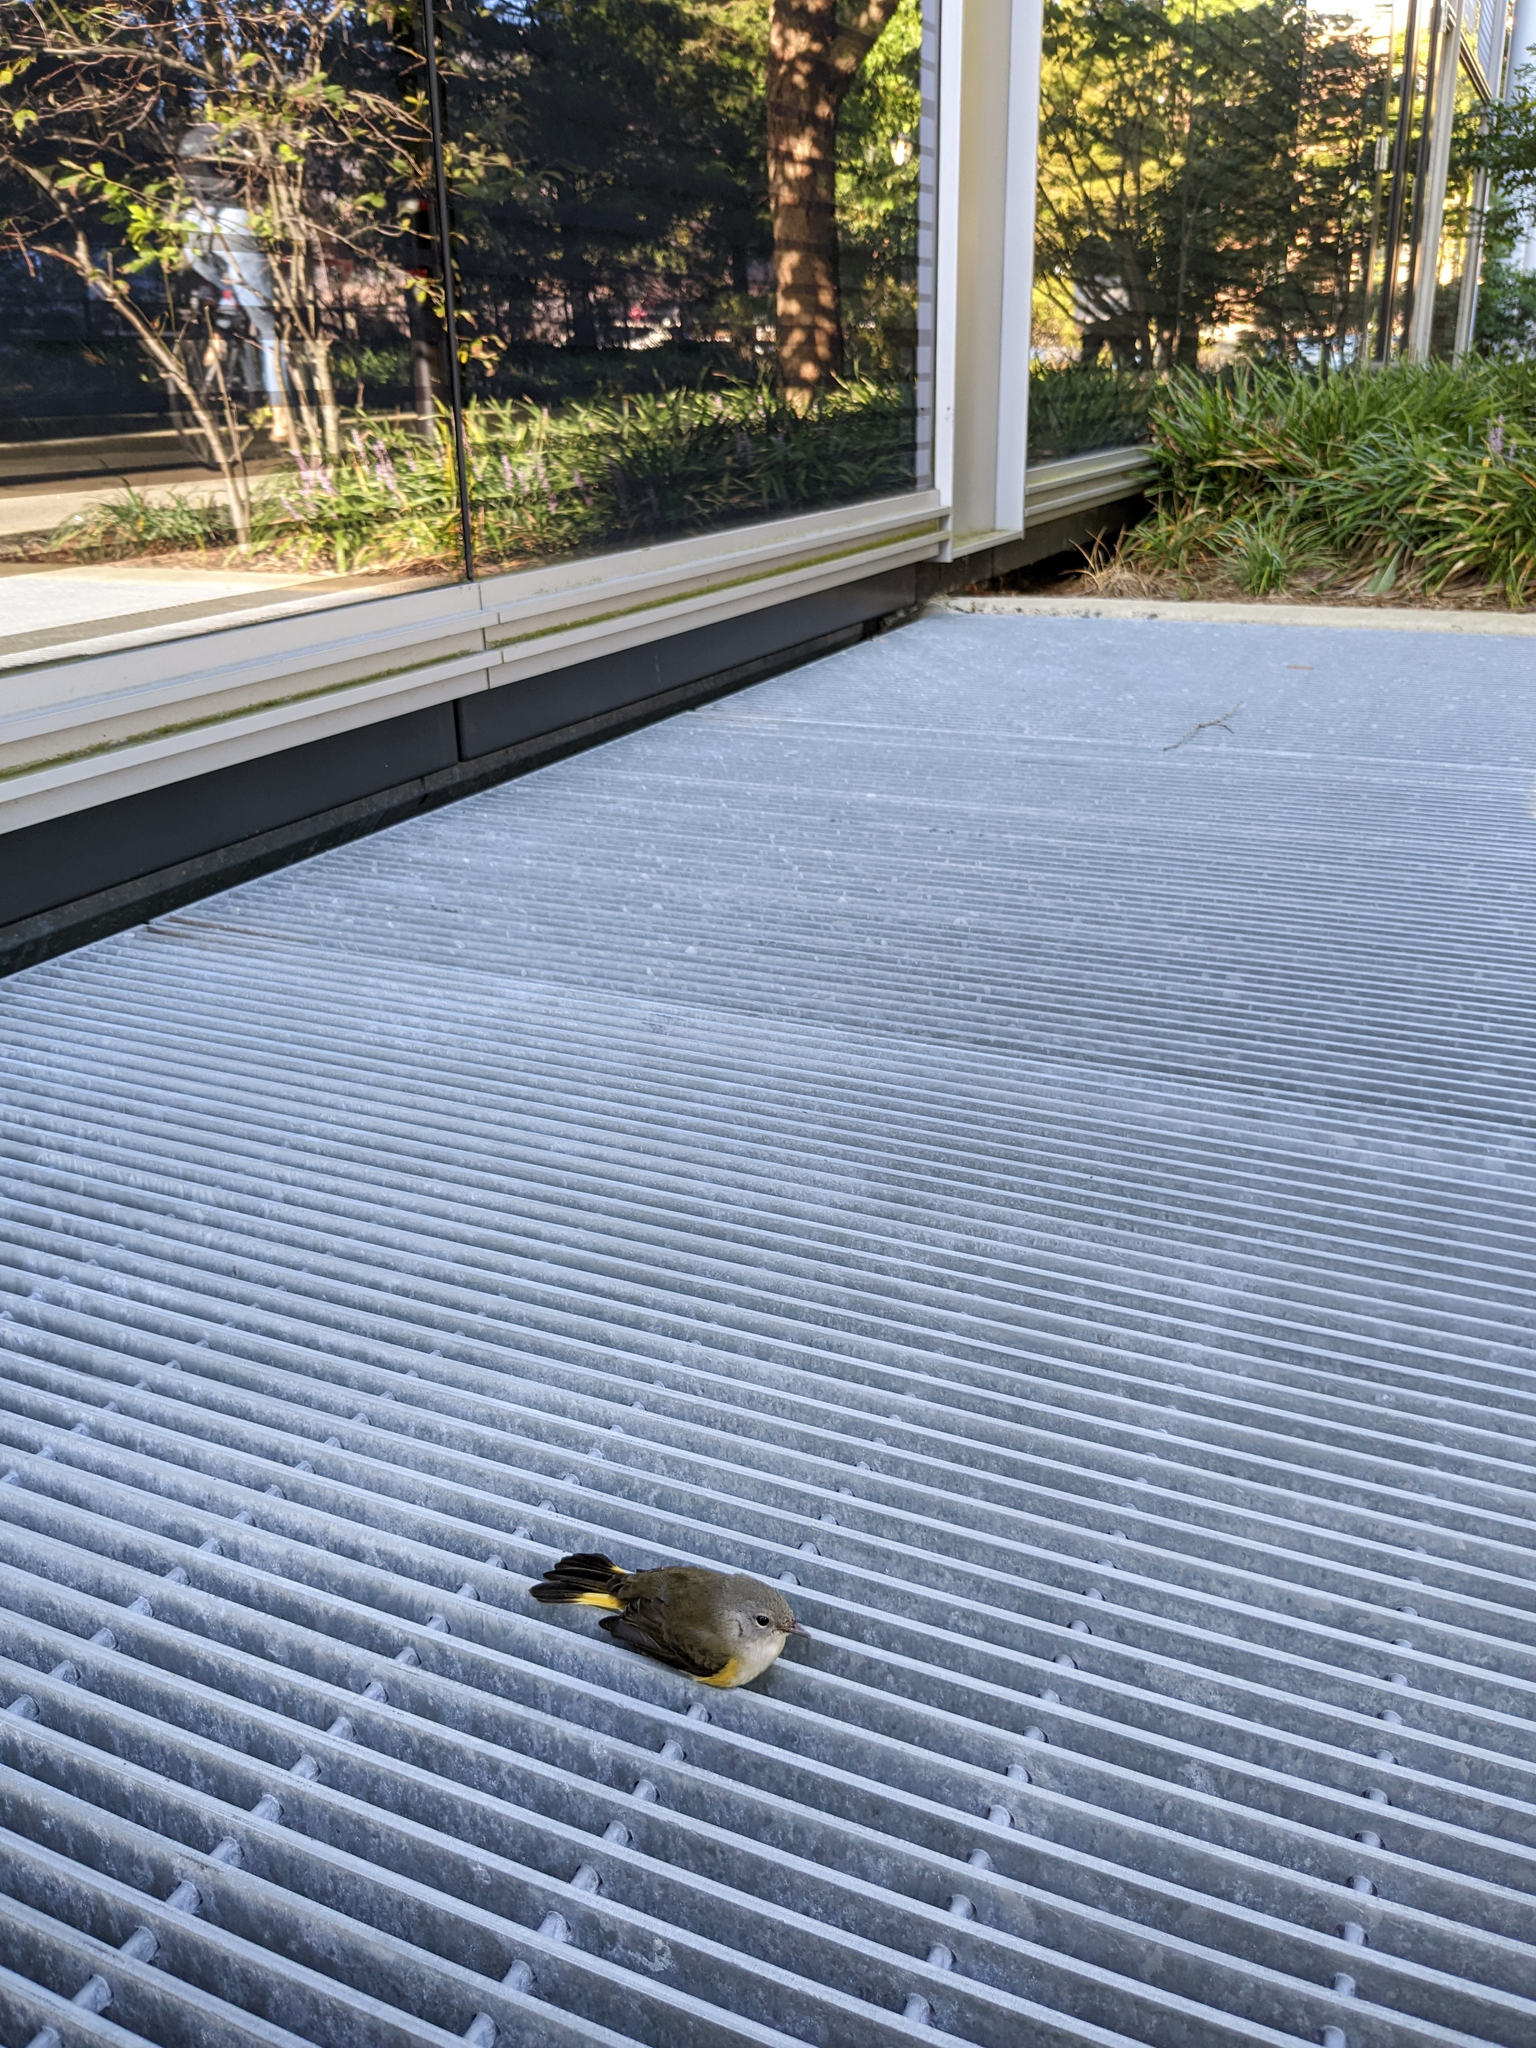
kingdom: Animalia
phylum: Chordata
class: Aves
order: Passeriformes
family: Parulidae
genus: Setophaga
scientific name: Setophaga ruticilla
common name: American redstart
